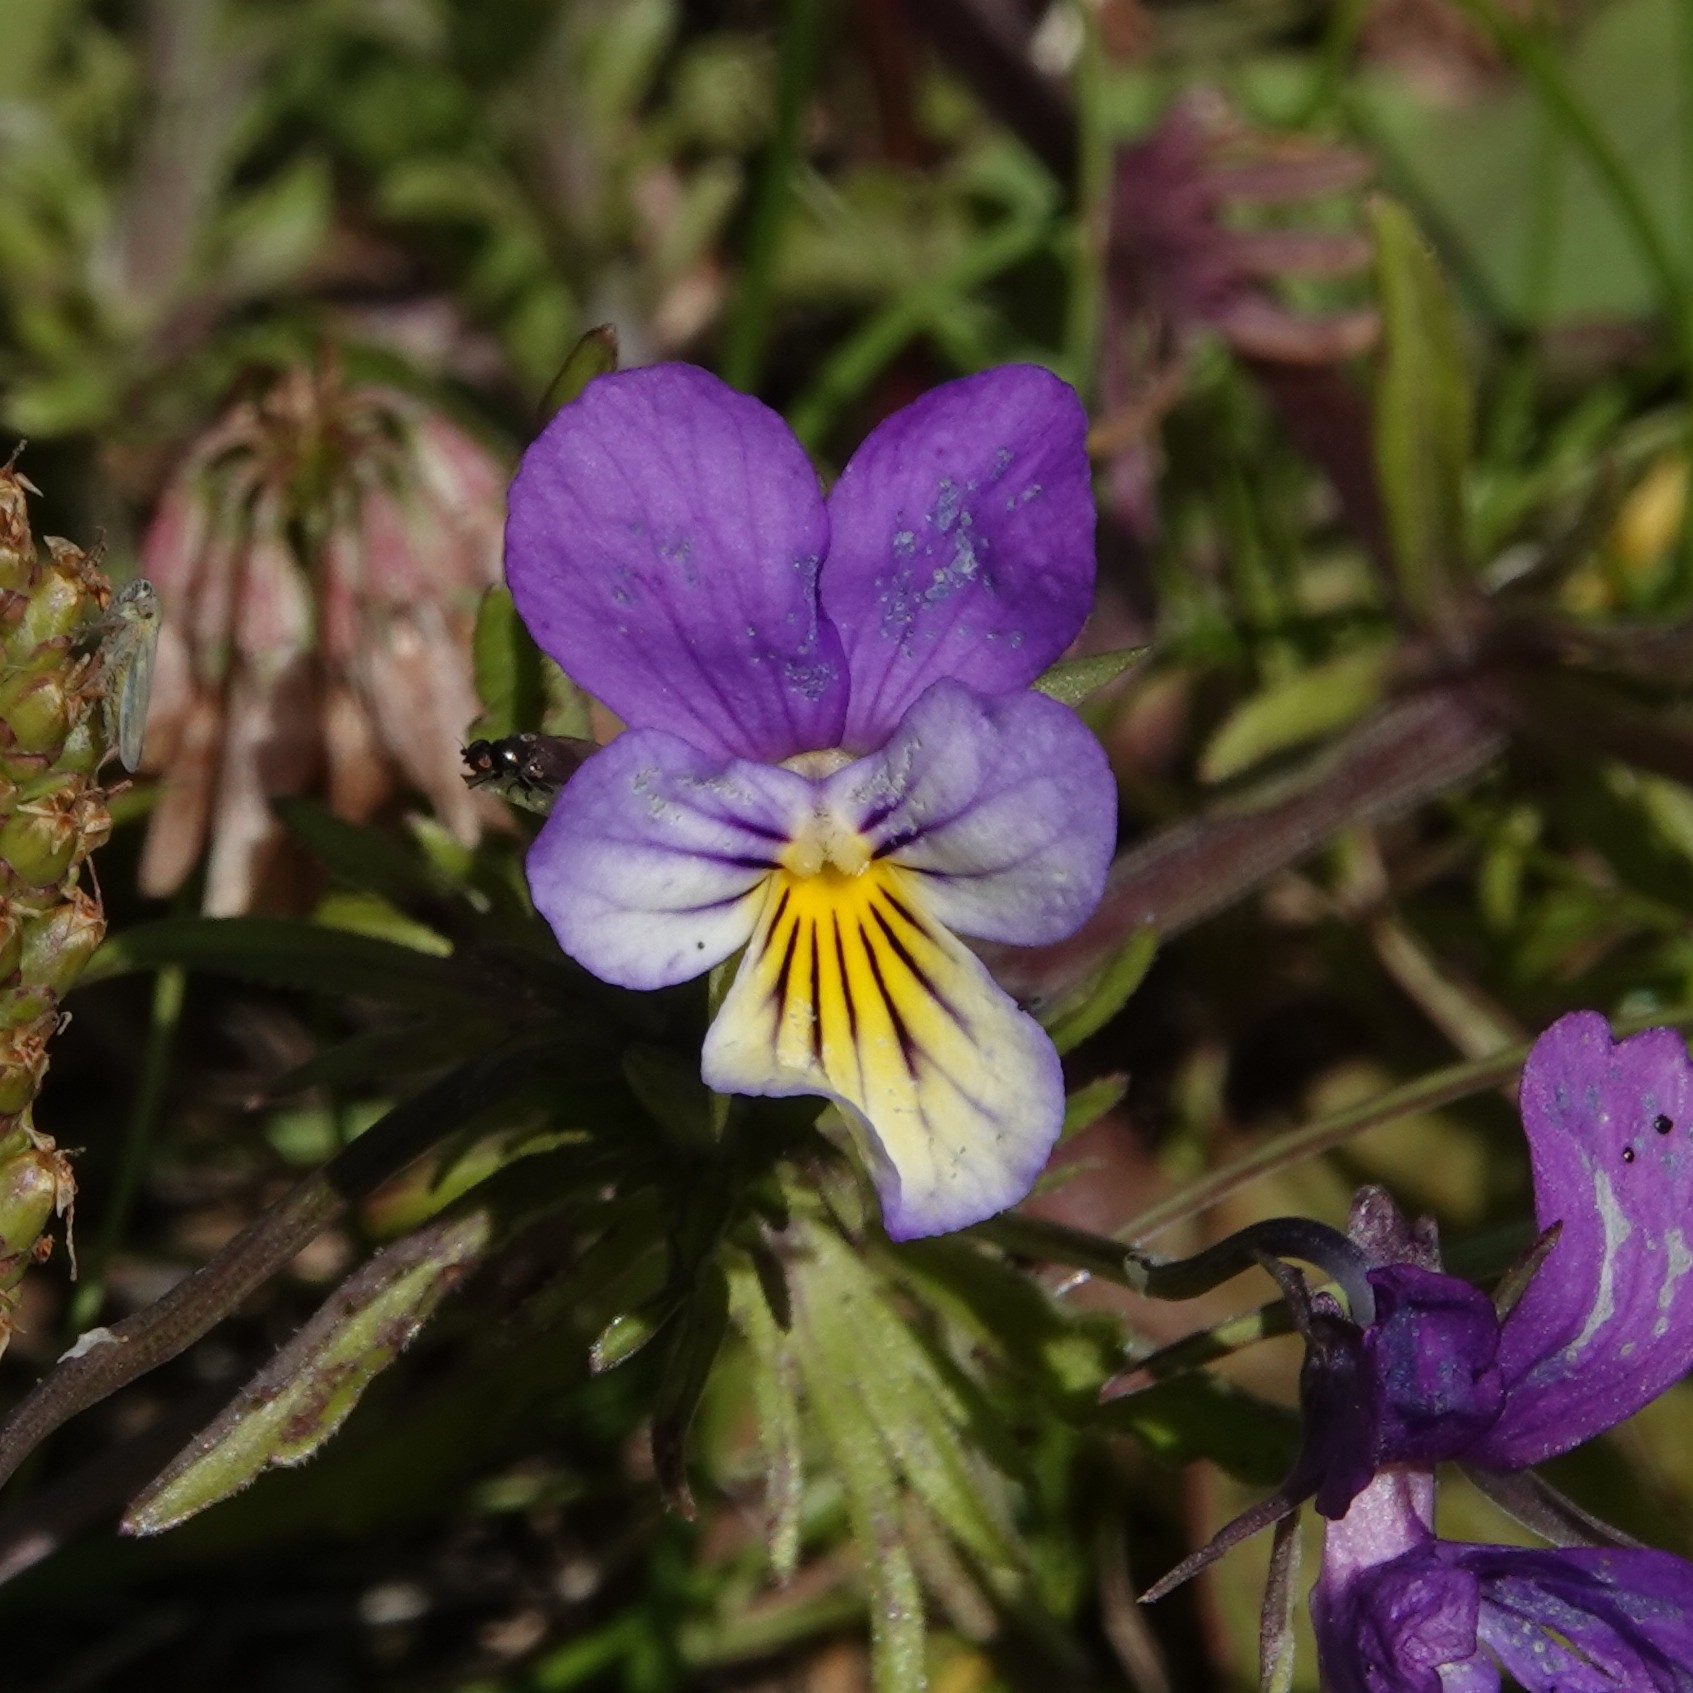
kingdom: Plantae
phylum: Tracheophyta
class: Magnoliopsida
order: Malpighiales
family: Violaceae
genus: Viola
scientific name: Viola tricolor
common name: Pansy
